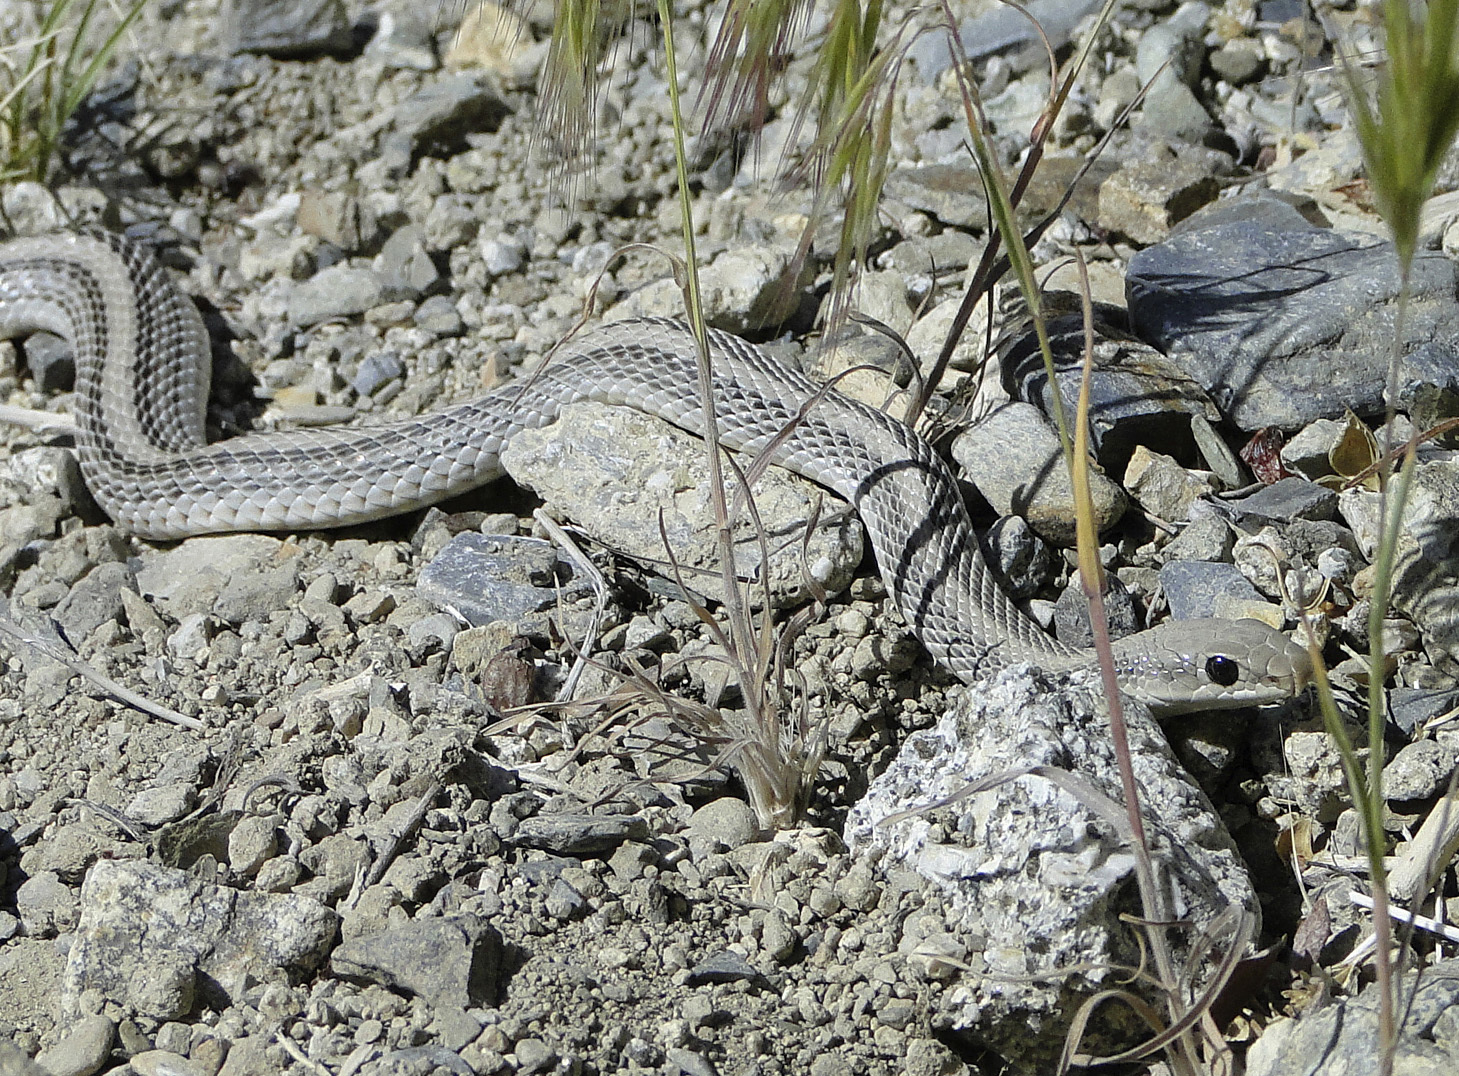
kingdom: Animalia
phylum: Chordata
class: Squamata
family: Colubridae
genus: Salvadora
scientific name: Salvadora hexalepis
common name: Western patchnose snake
